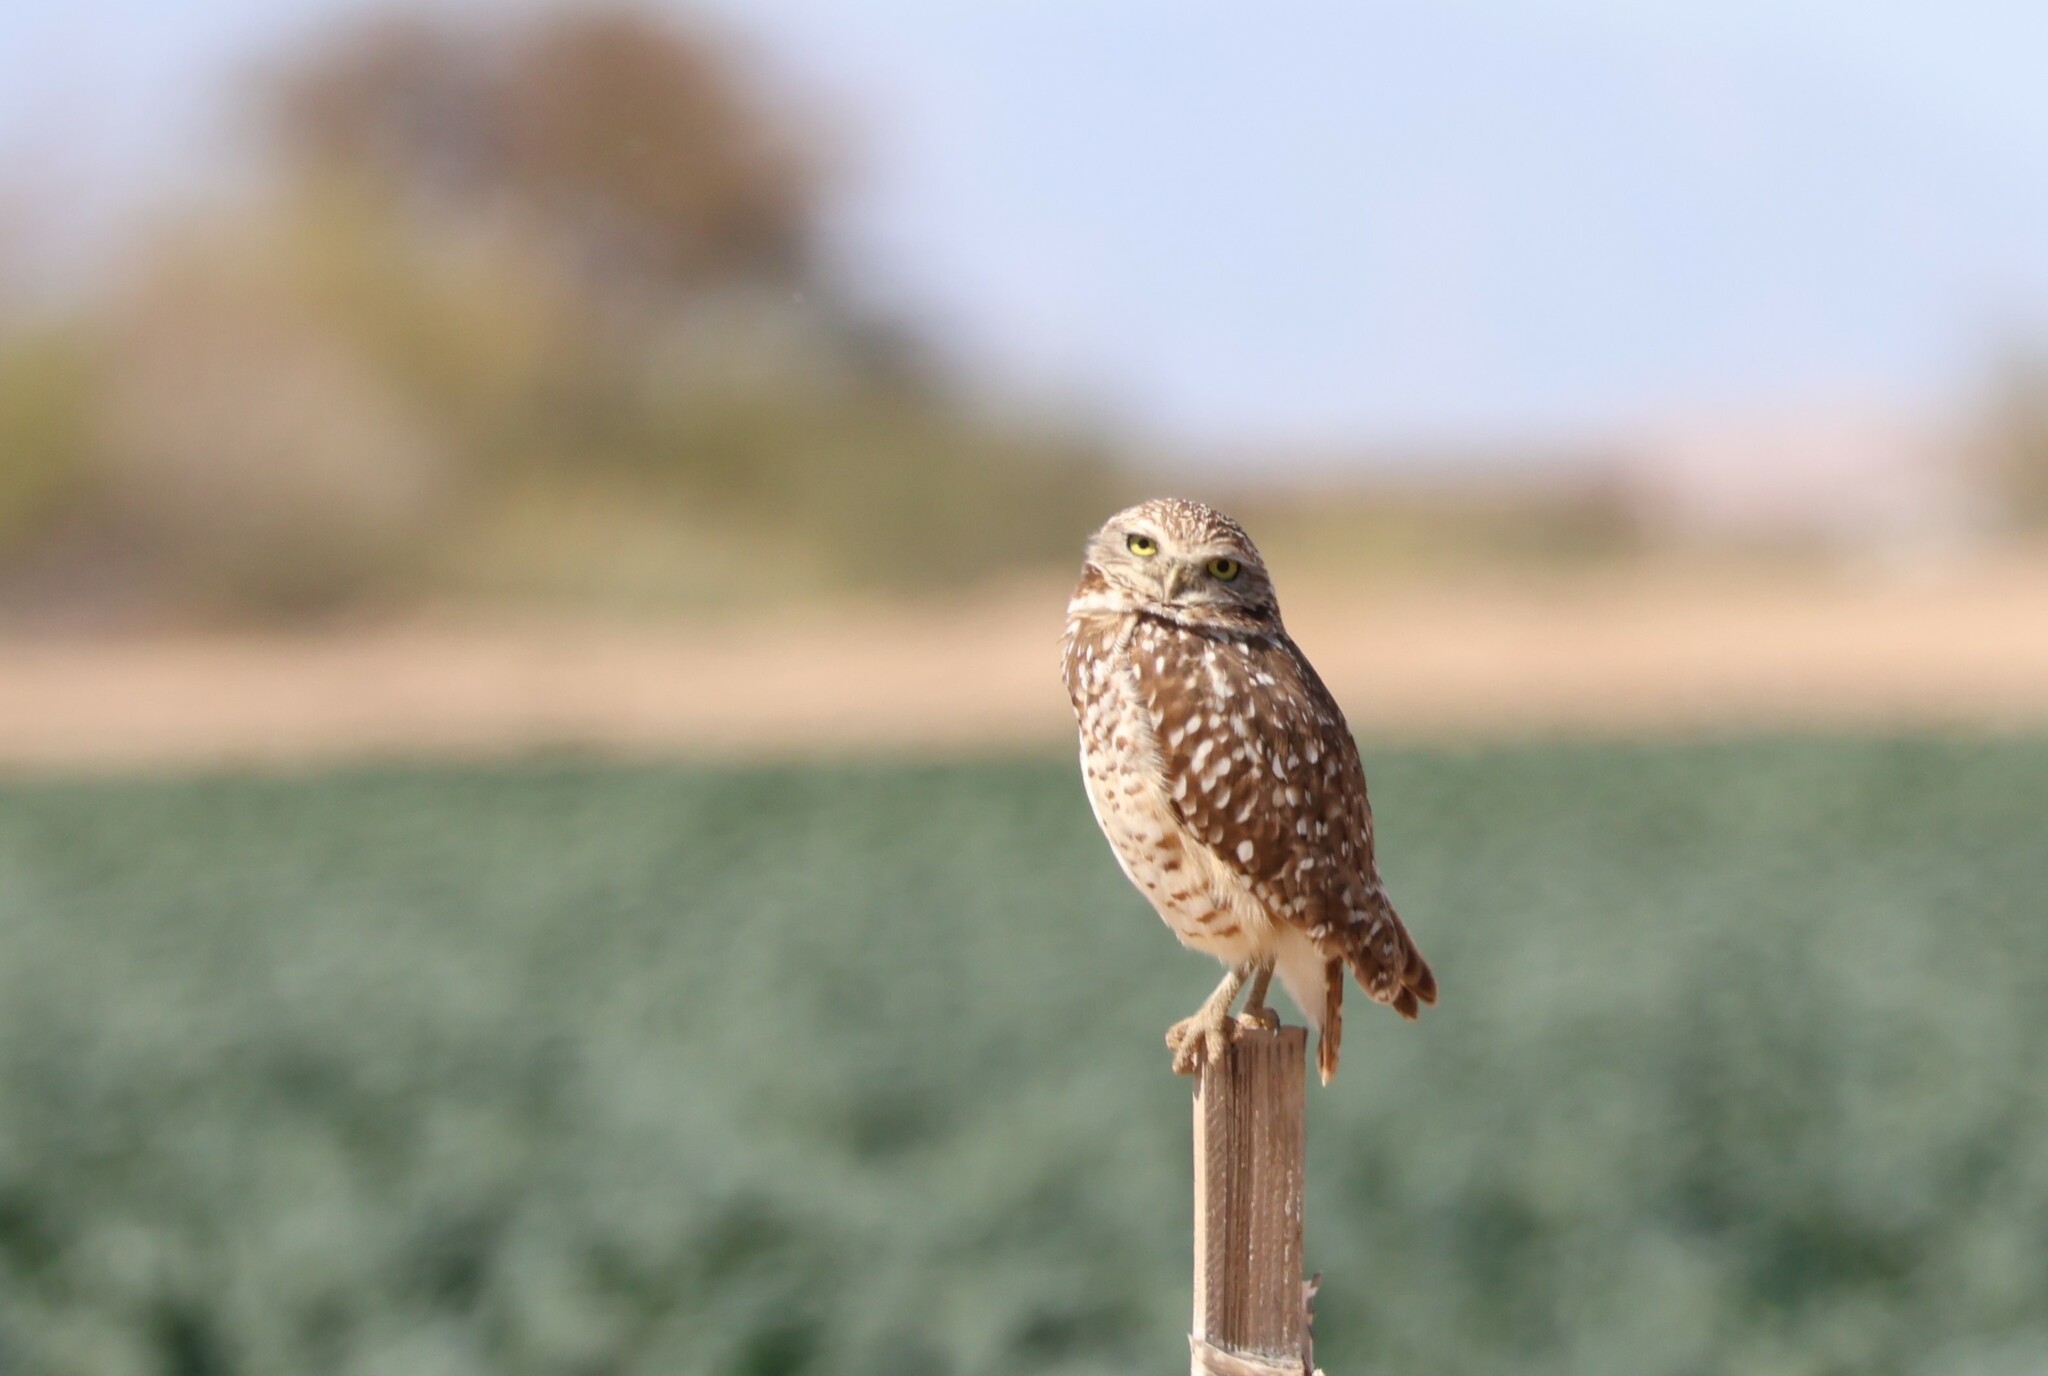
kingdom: Animalia
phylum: Chordata
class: Aves
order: Strigiformes
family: Strigidae
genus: Athene
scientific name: Athene cunicularia
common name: Burrowing owl
